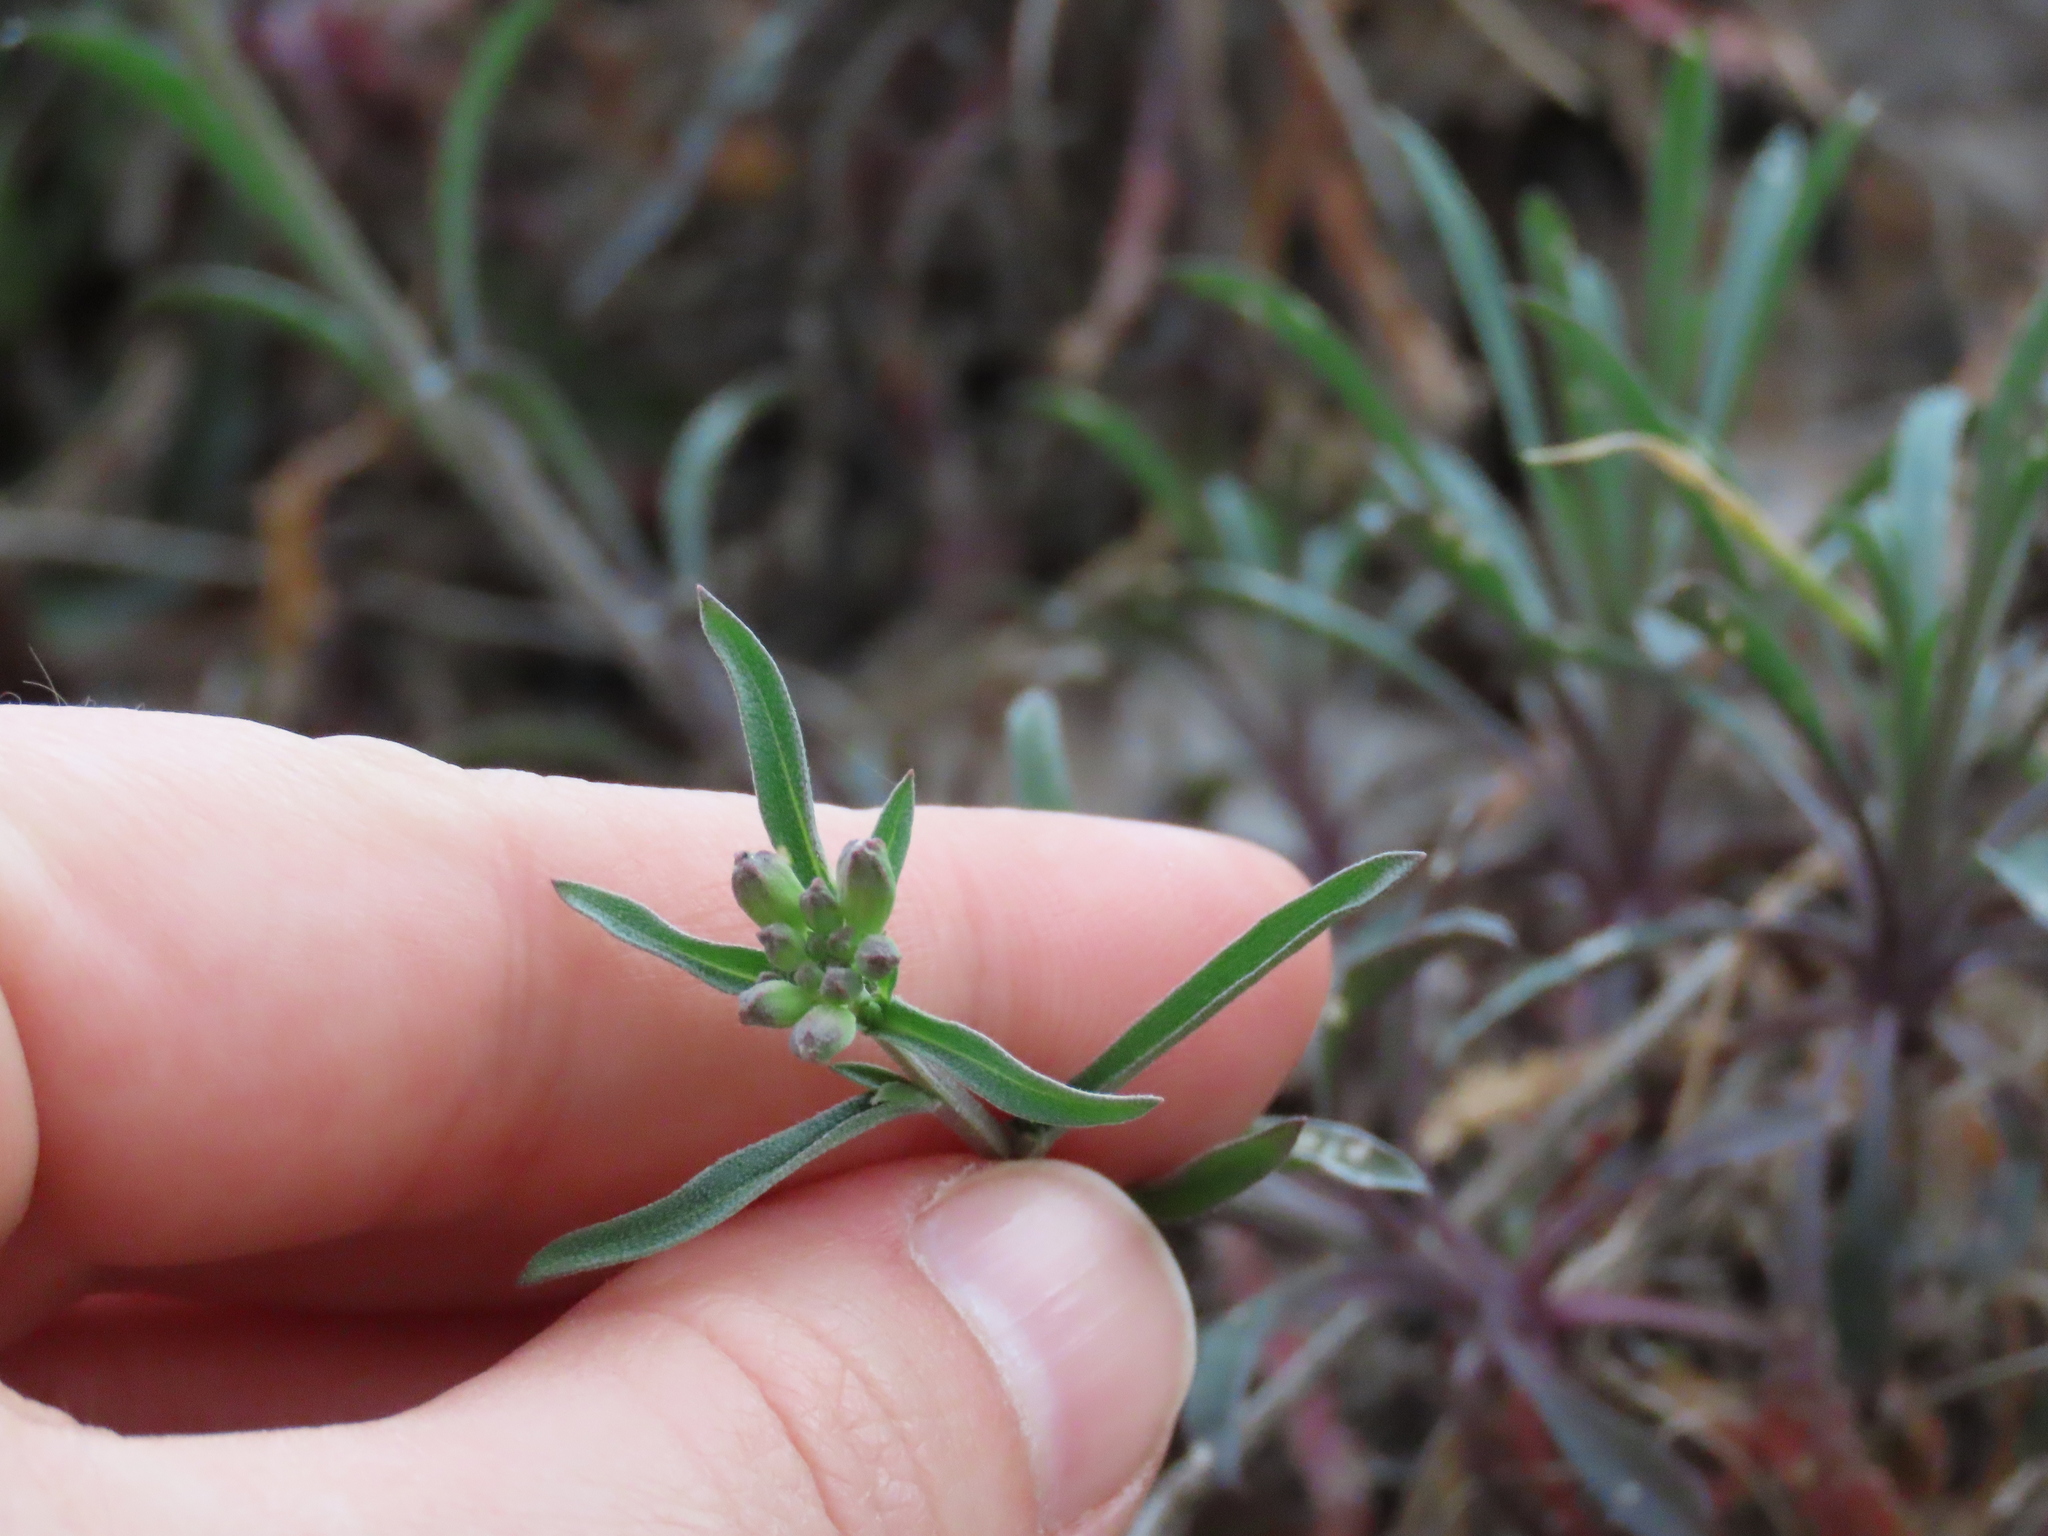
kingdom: Plantae
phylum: Tracheophyta
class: Magnoliopsida
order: Brassicales
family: Brassicaceae
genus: Erysimum
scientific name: Erysimum crepidifolium
